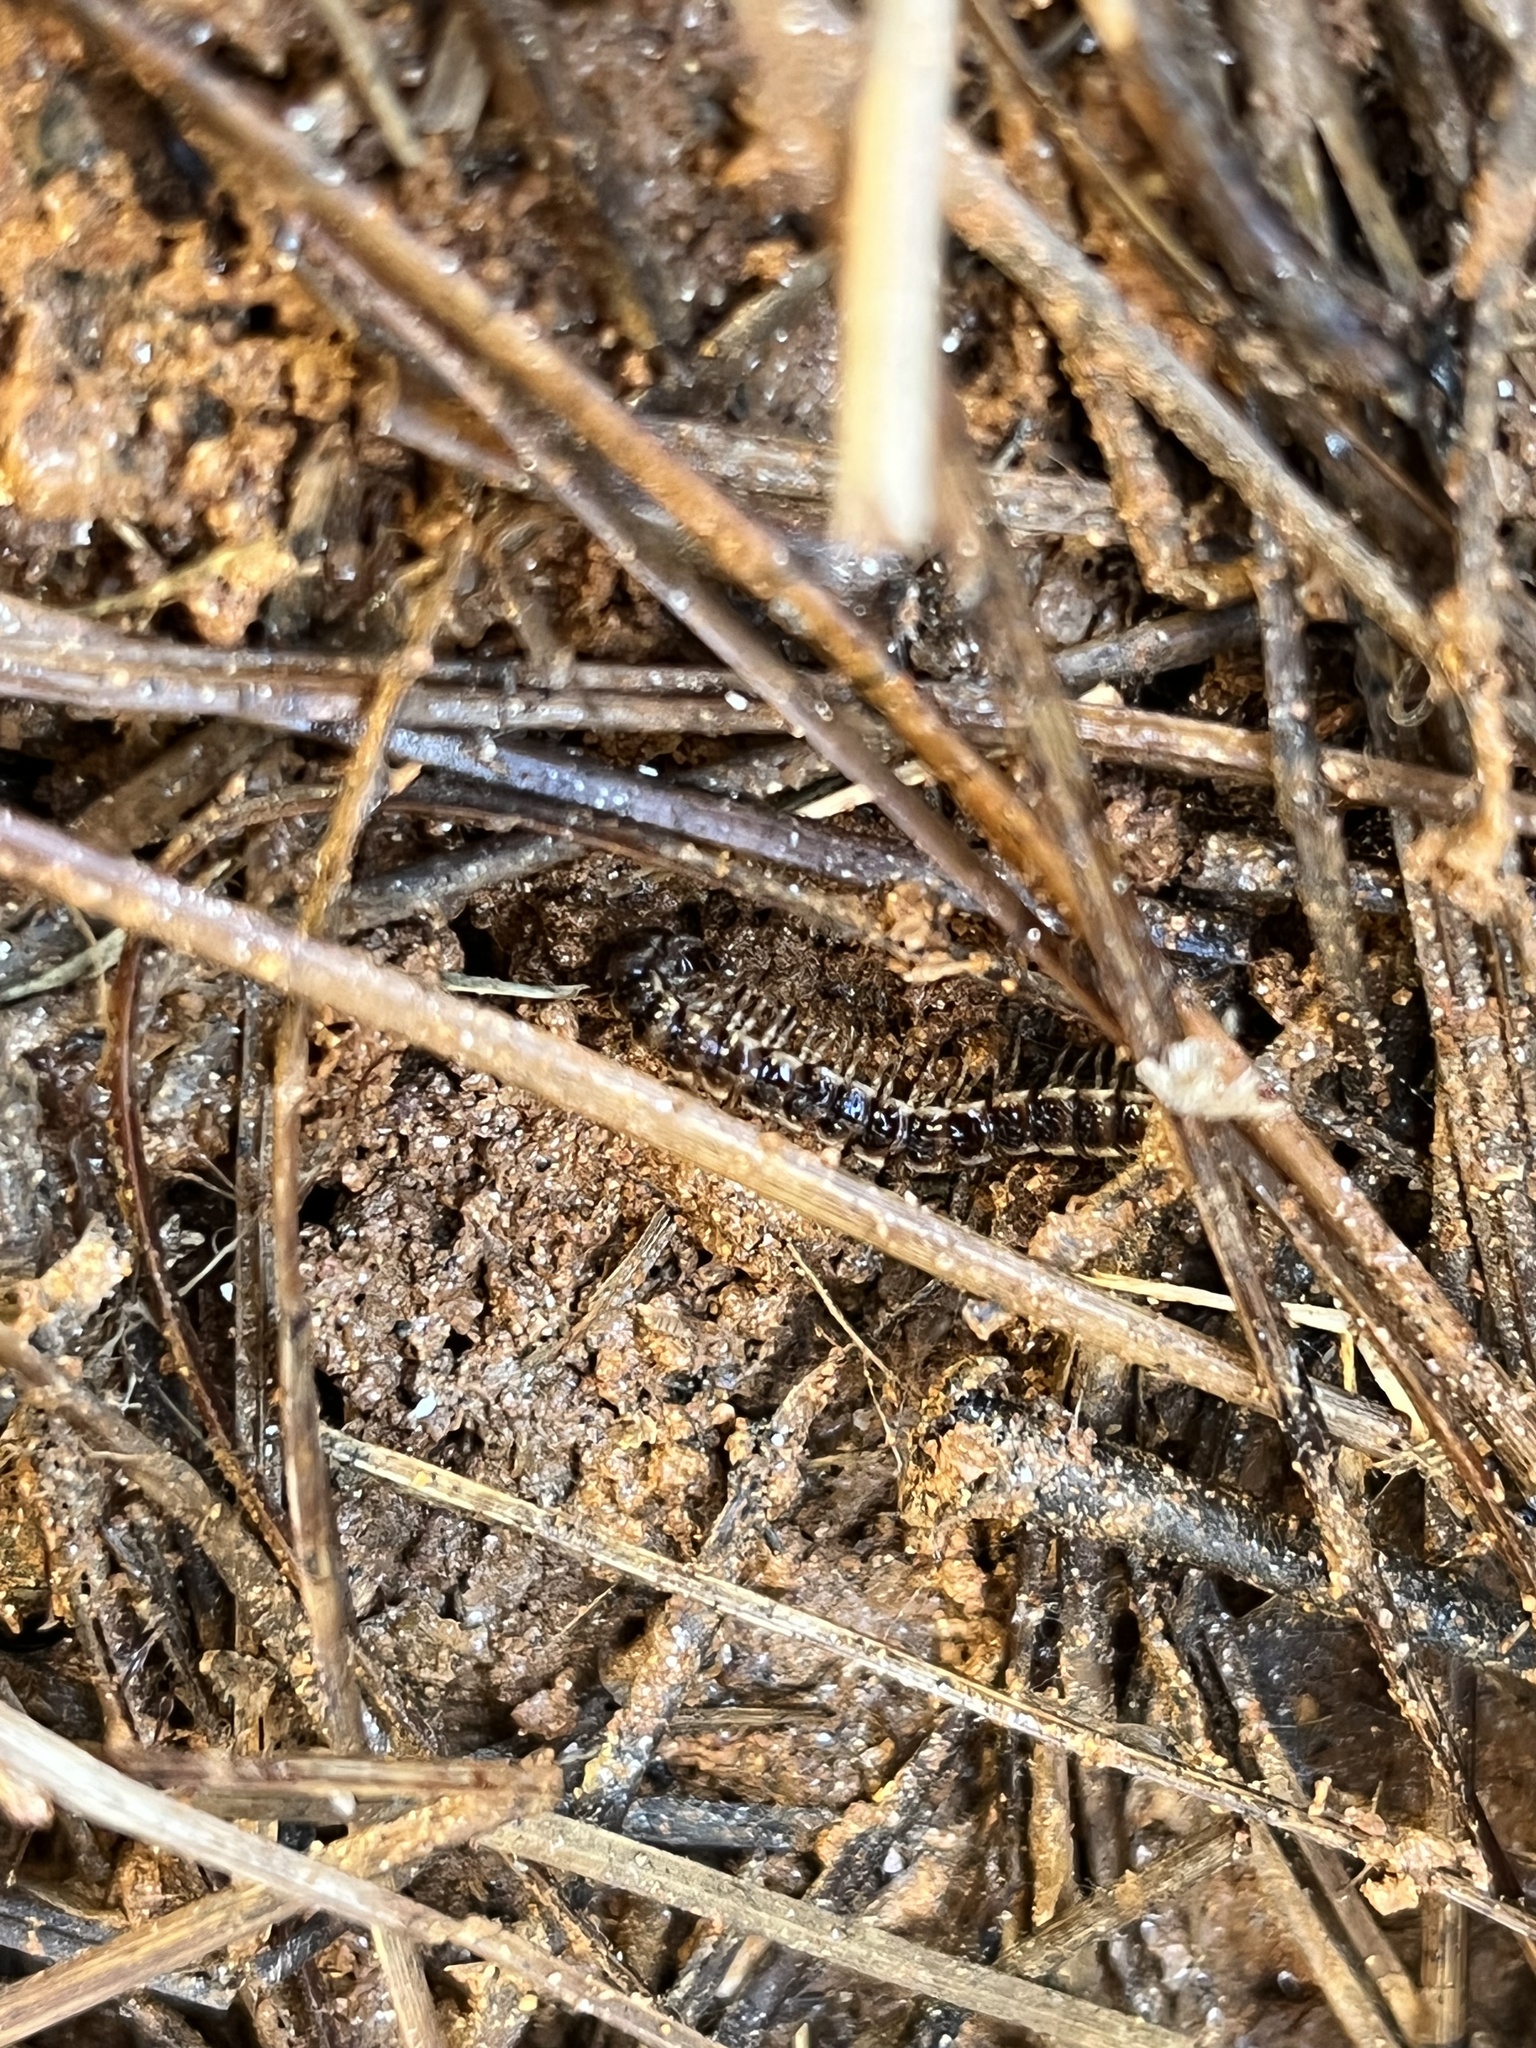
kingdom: Animalia
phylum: Arthropoda
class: Diplopoda
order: Polydesmida
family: Paradoxosomatidae
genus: Oxidus
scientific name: Oxidus gracilis
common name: Greenhouse millipede
